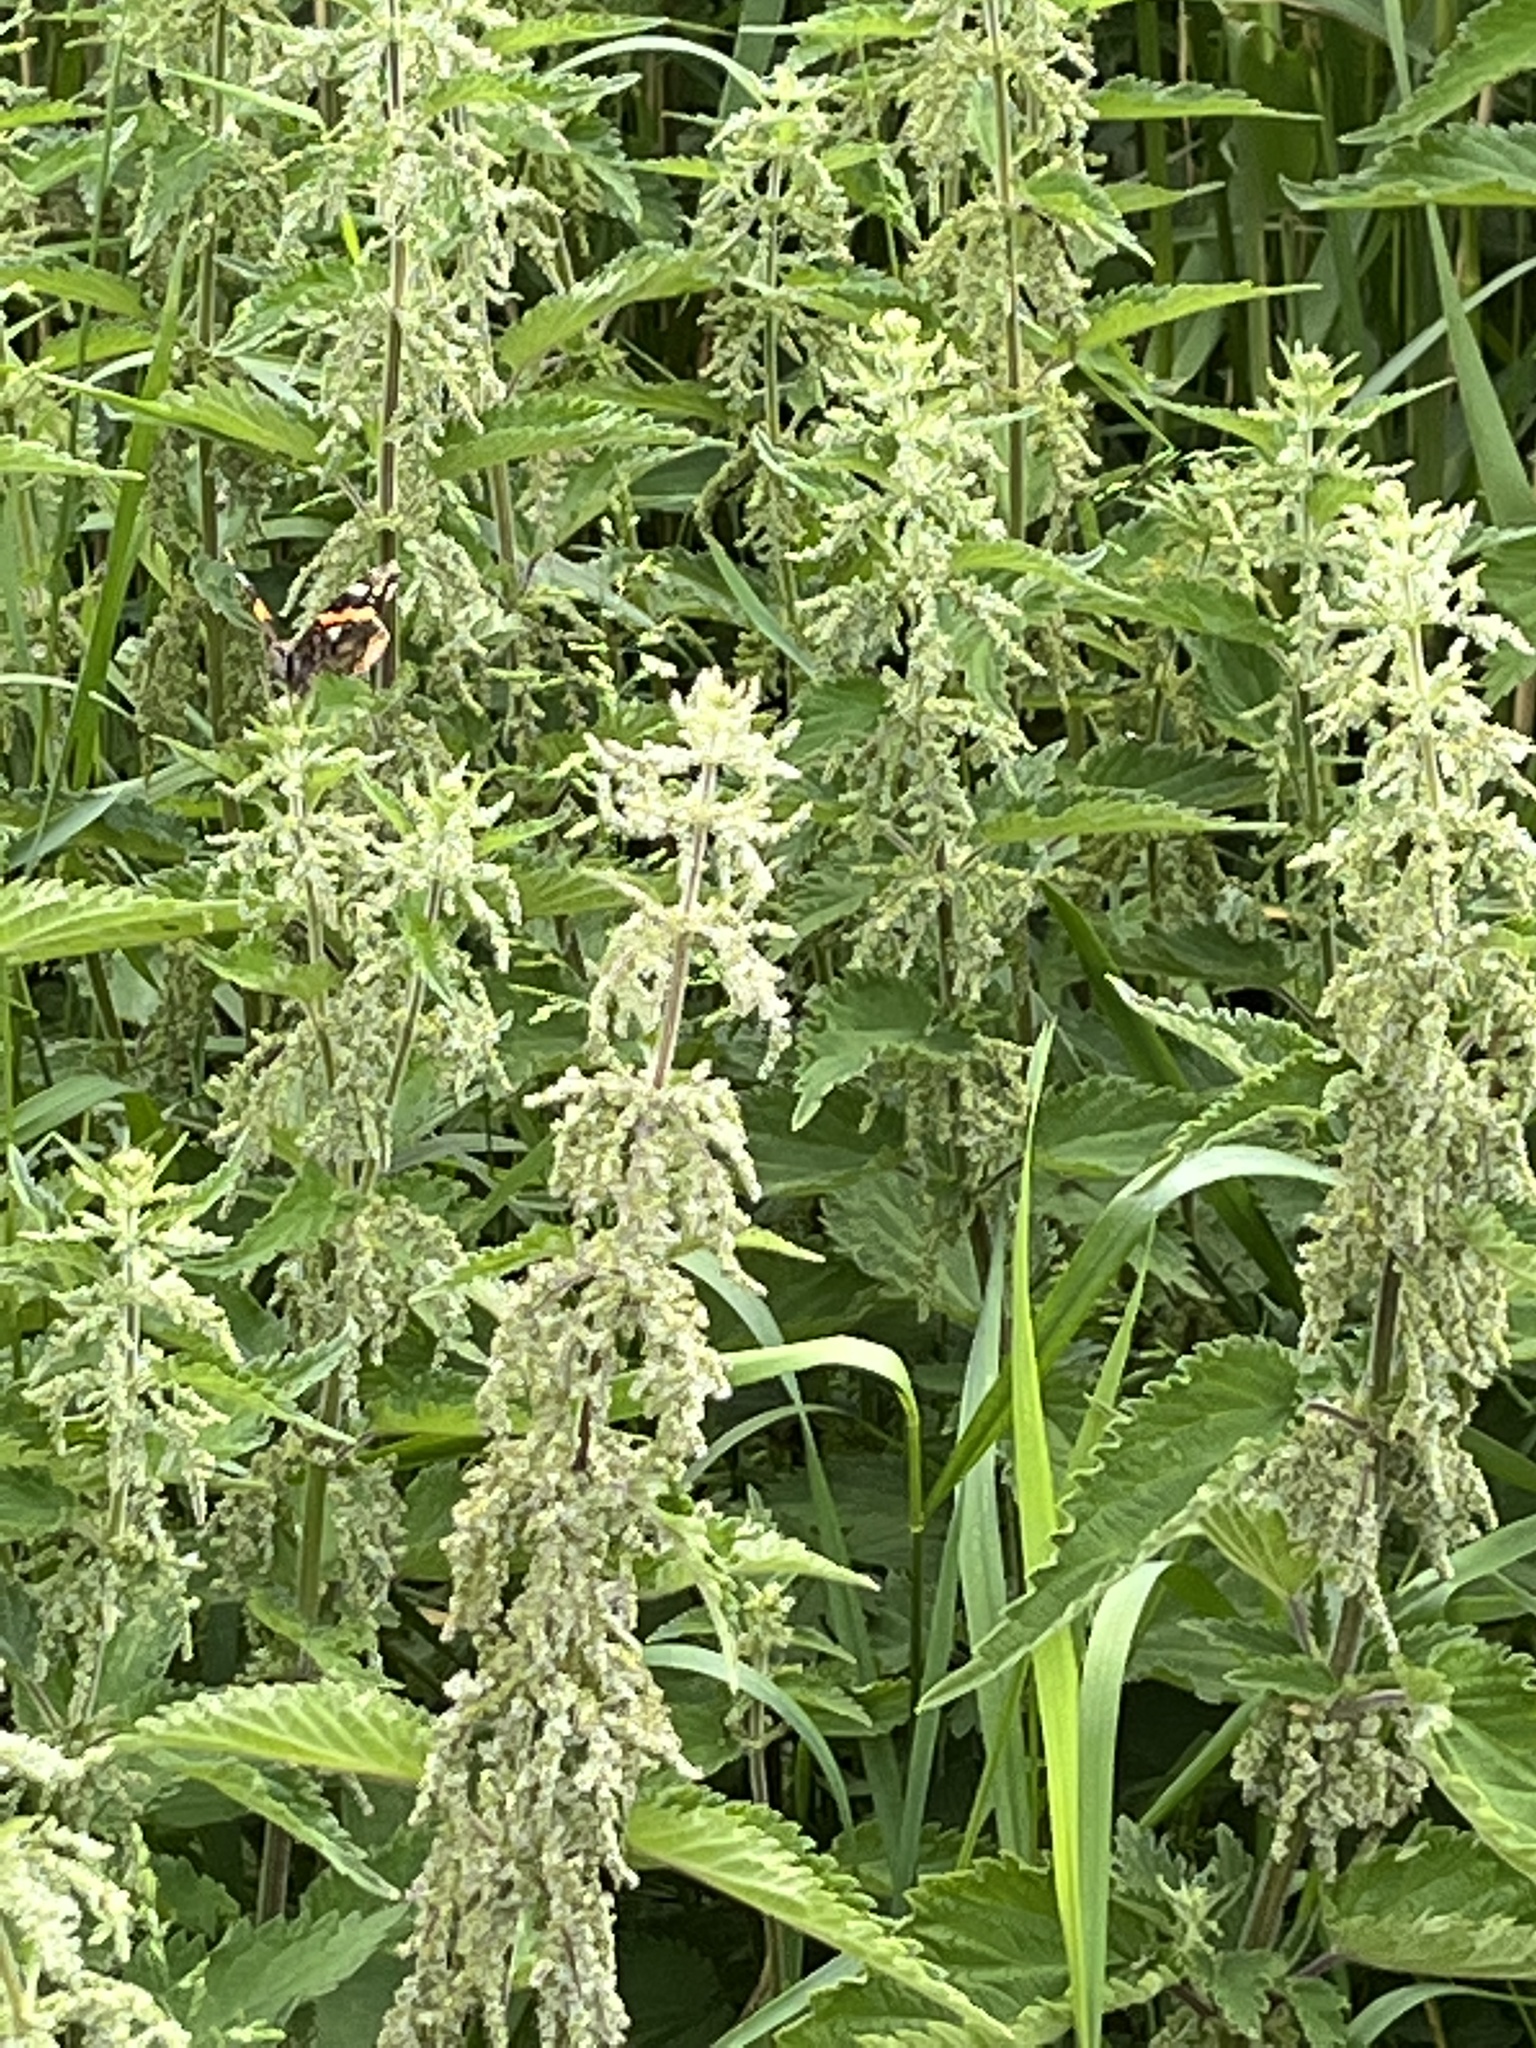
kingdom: Animalia
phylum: Arthropoda
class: Insecta
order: Lepidoptera
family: Nymphalidae
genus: Vanessa
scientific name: Vanessa atalanta
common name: Red admiral
